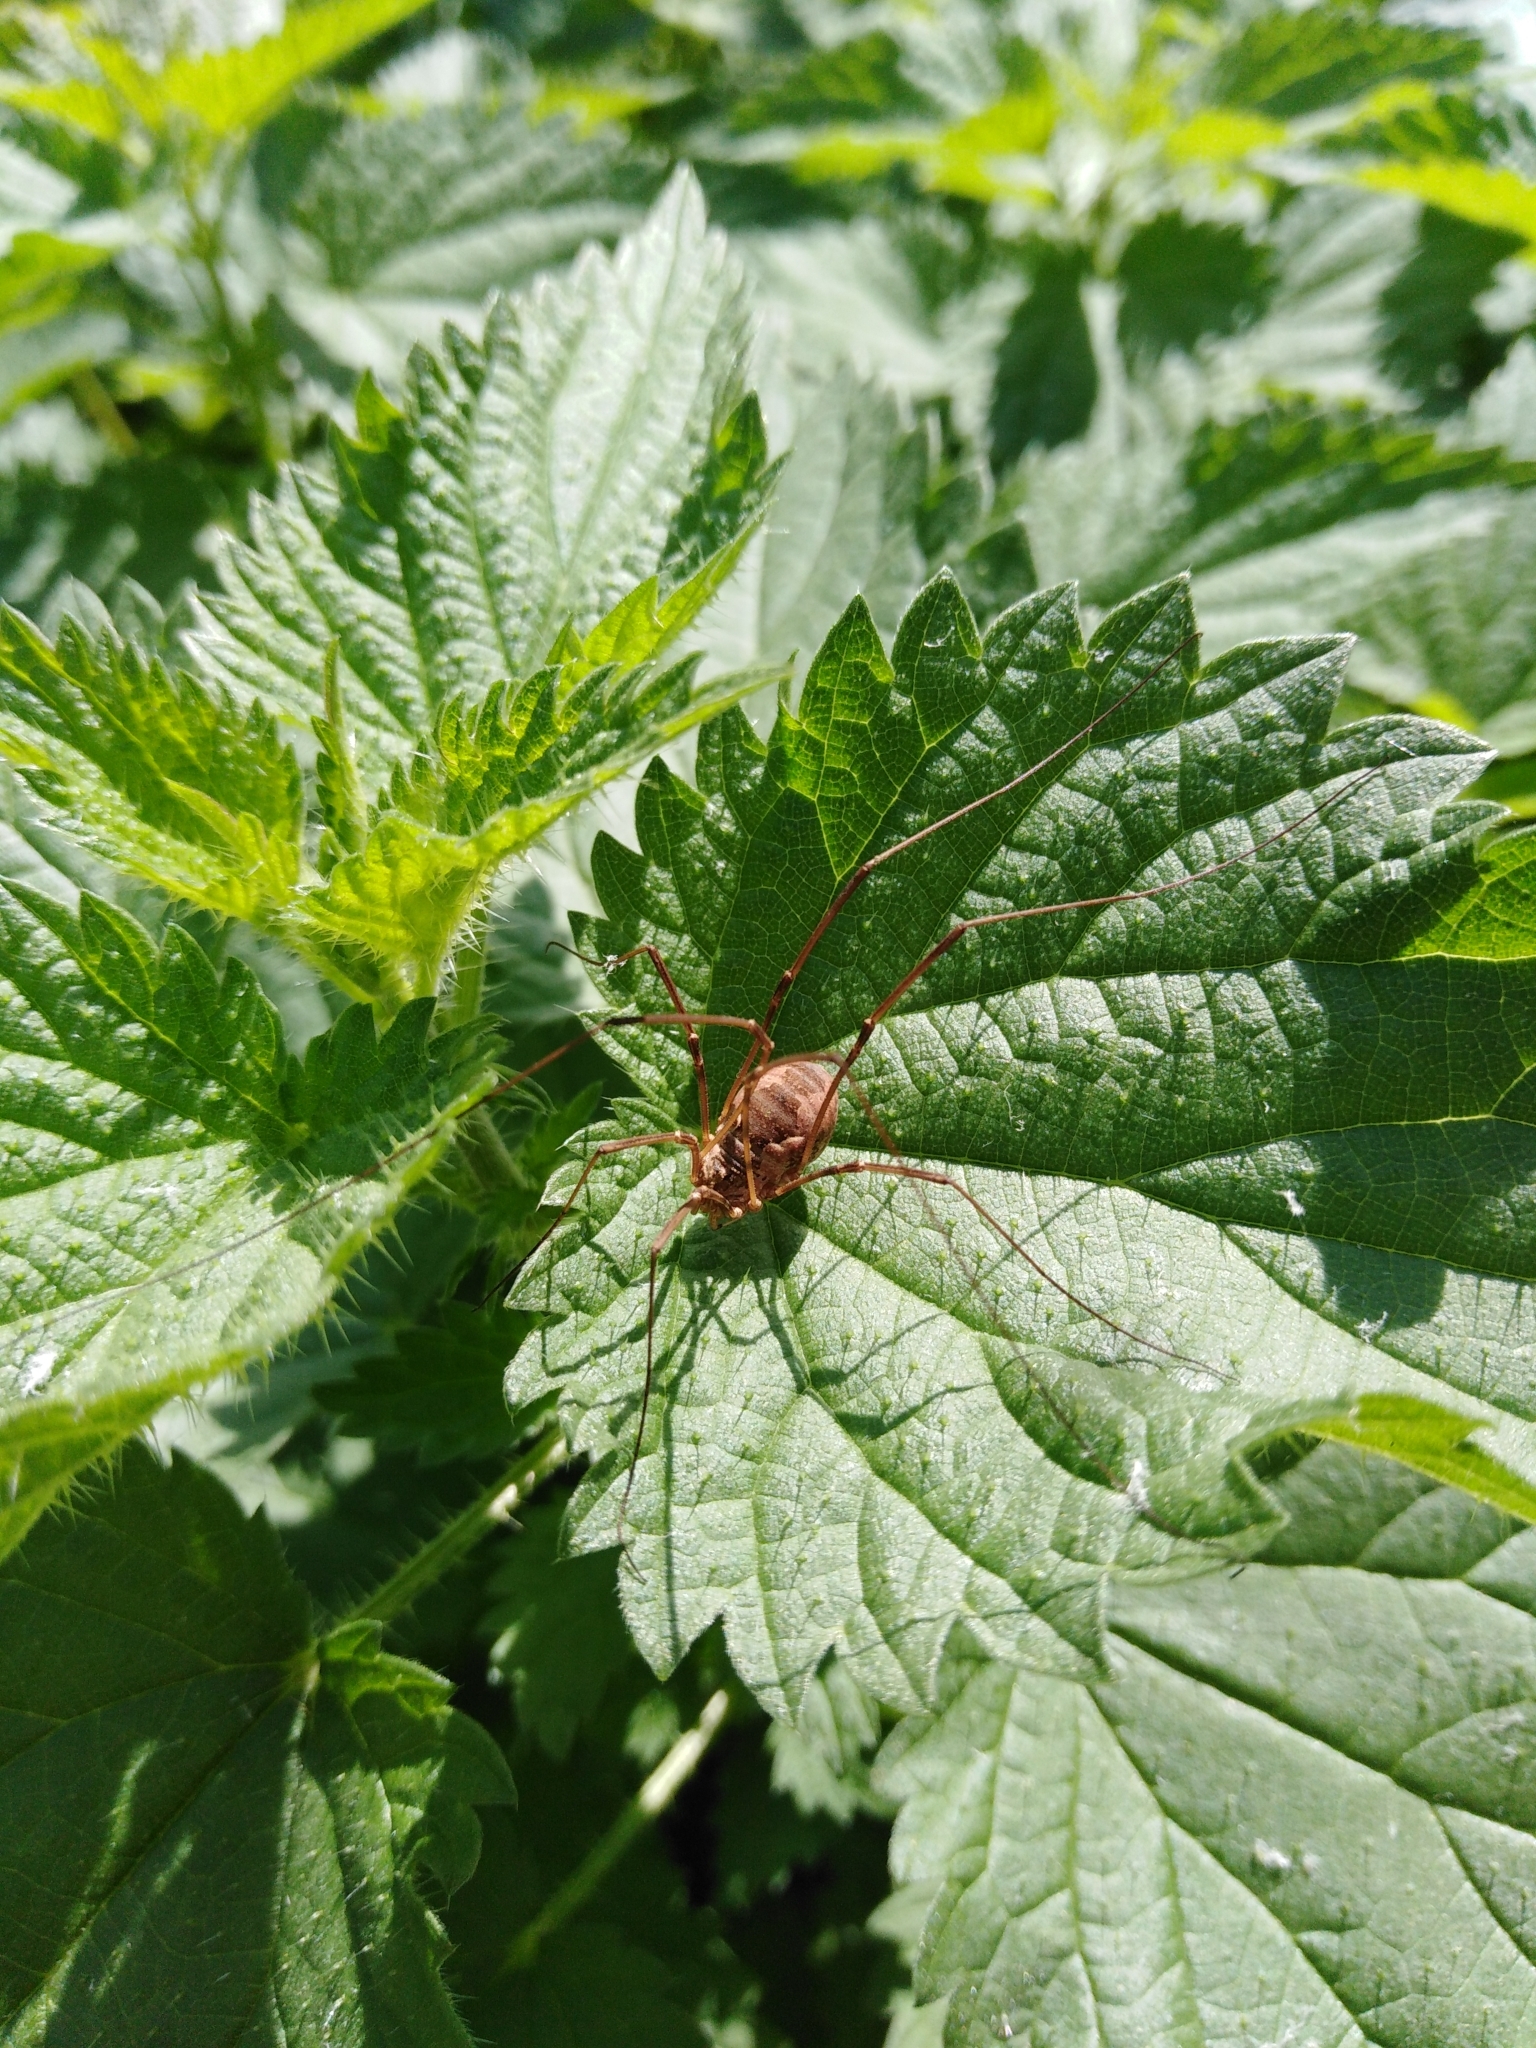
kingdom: Animalia
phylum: Arthropoda
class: Arachnida
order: Opiliones
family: Phalangiidae
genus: Phalangium
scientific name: Phalangium opilio
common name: Daddy longleg
